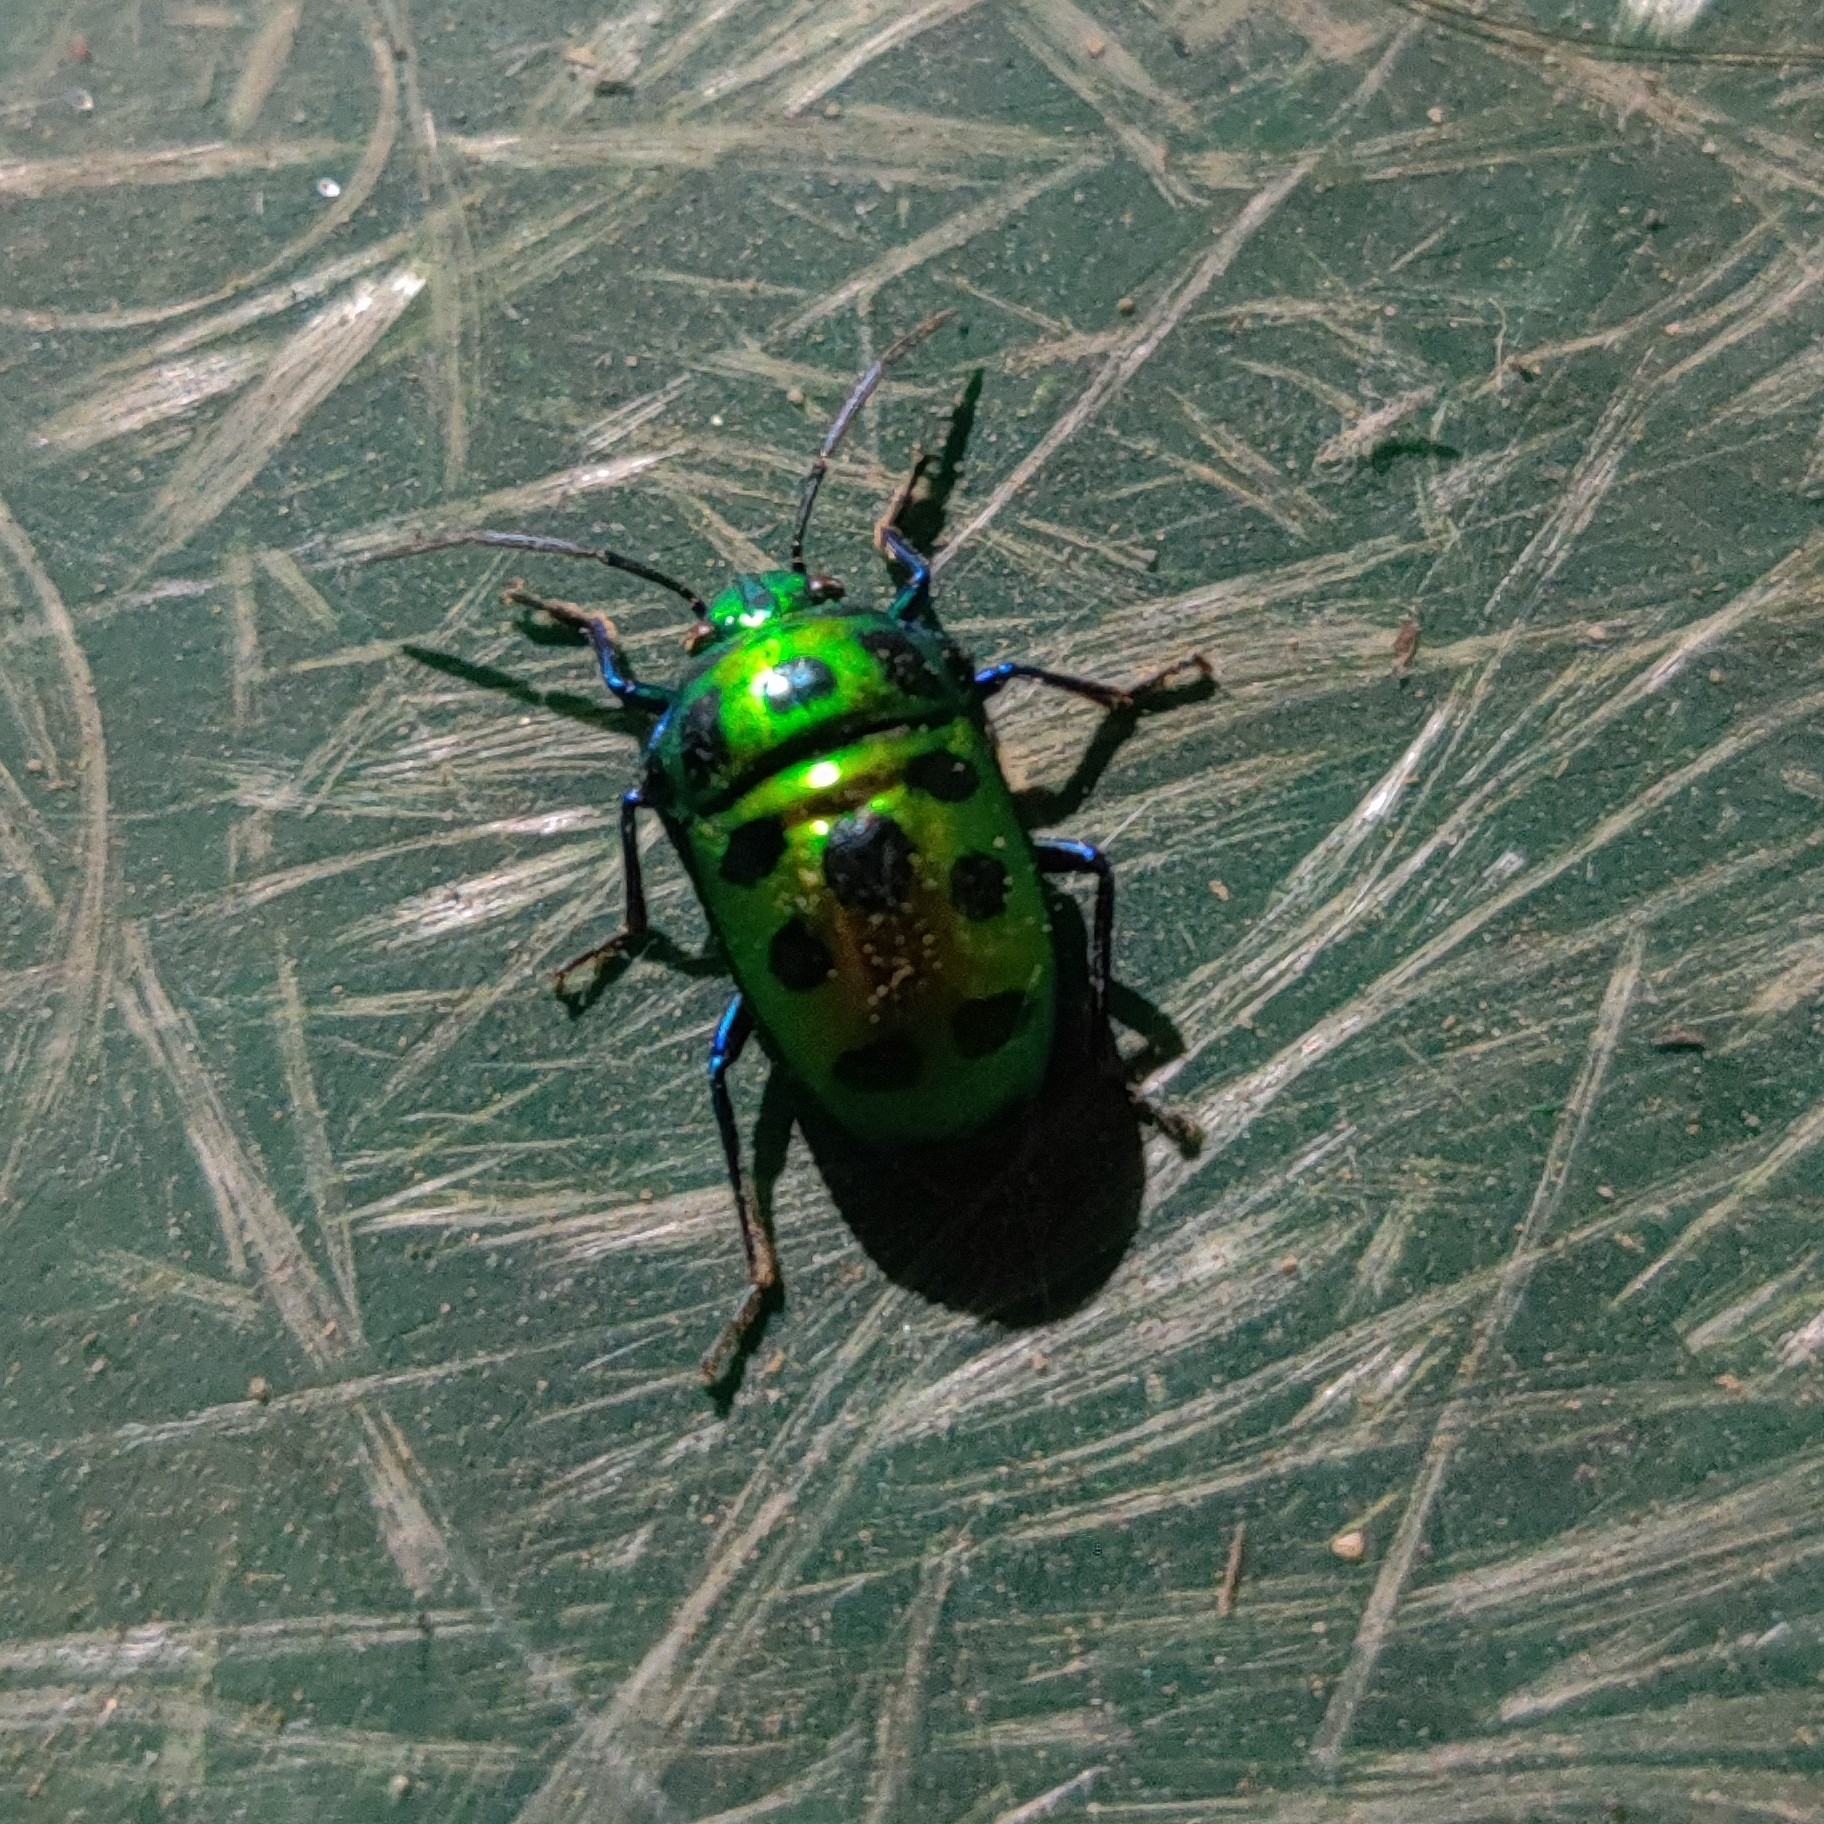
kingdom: Animalia
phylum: Arthropoda
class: Insecta
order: Hemiptera
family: Scutelleridae
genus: Chrysocoris
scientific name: Chrysocoris stollii
